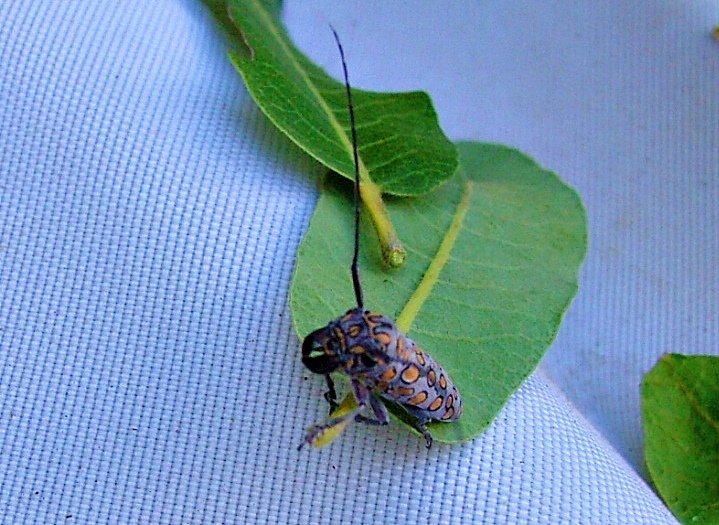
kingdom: Animalia
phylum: Arthropoda
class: Insecta
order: Coleoptera
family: Cerambycidae
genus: Dinocephalus
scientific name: Dinocephalus ornatus
